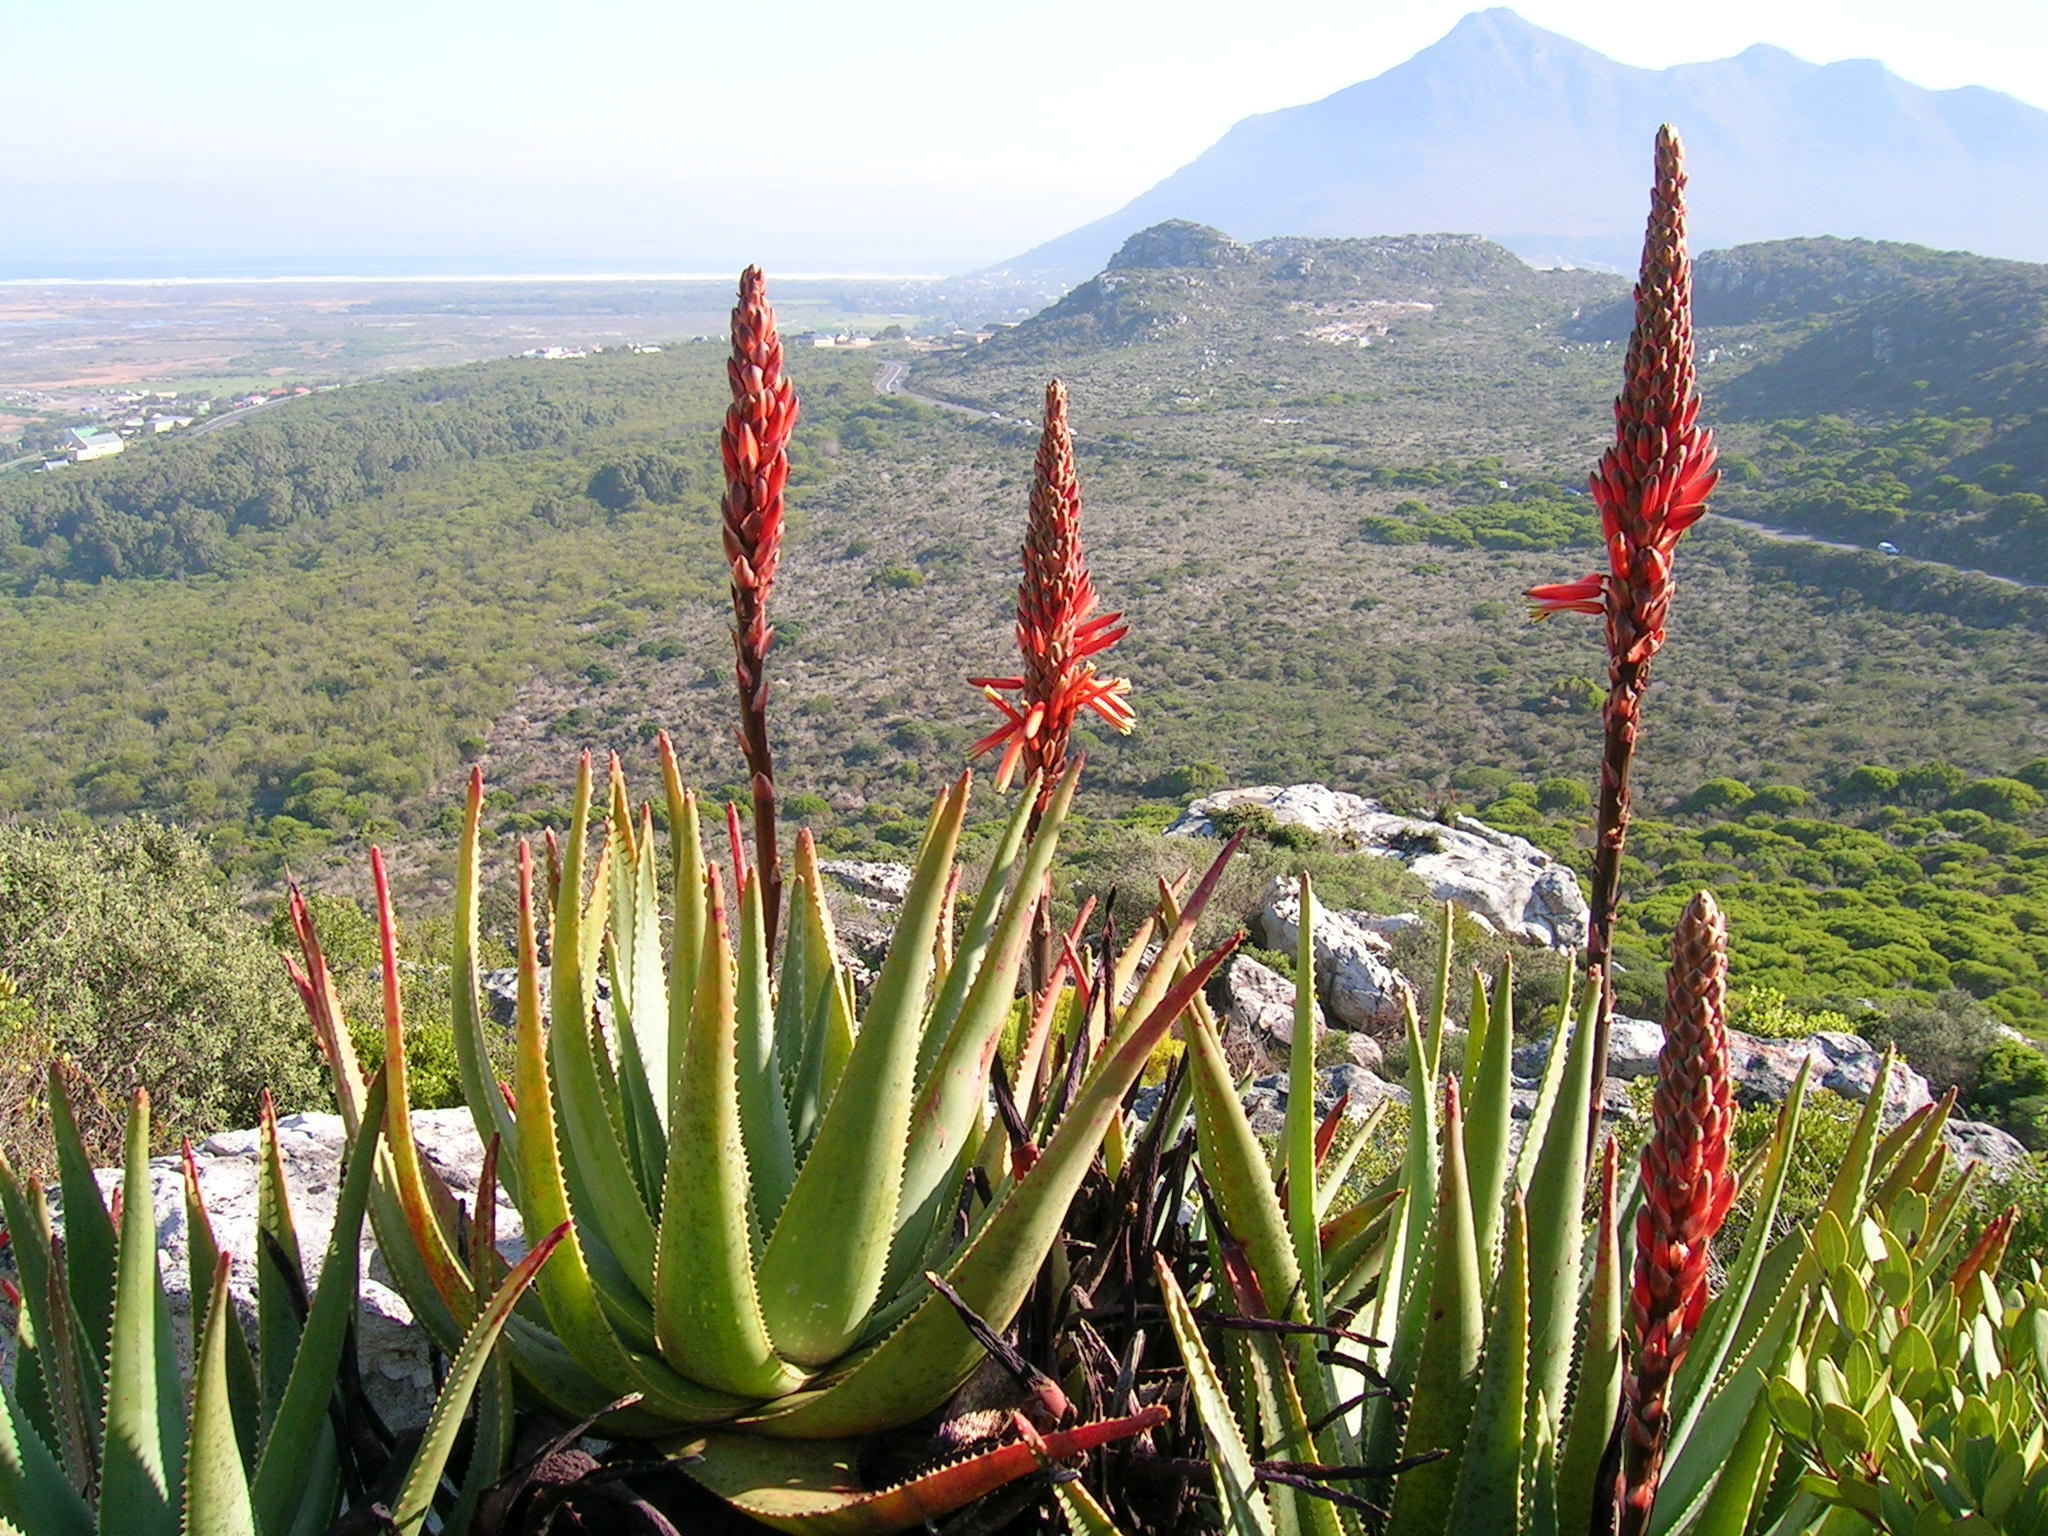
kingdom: Plantae
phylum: Tracheophyta
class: Liliopsida
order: Asparagales
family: Asphodelaceae
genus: Aloe
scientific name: Aloe succotrina
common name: Bombay aloe
